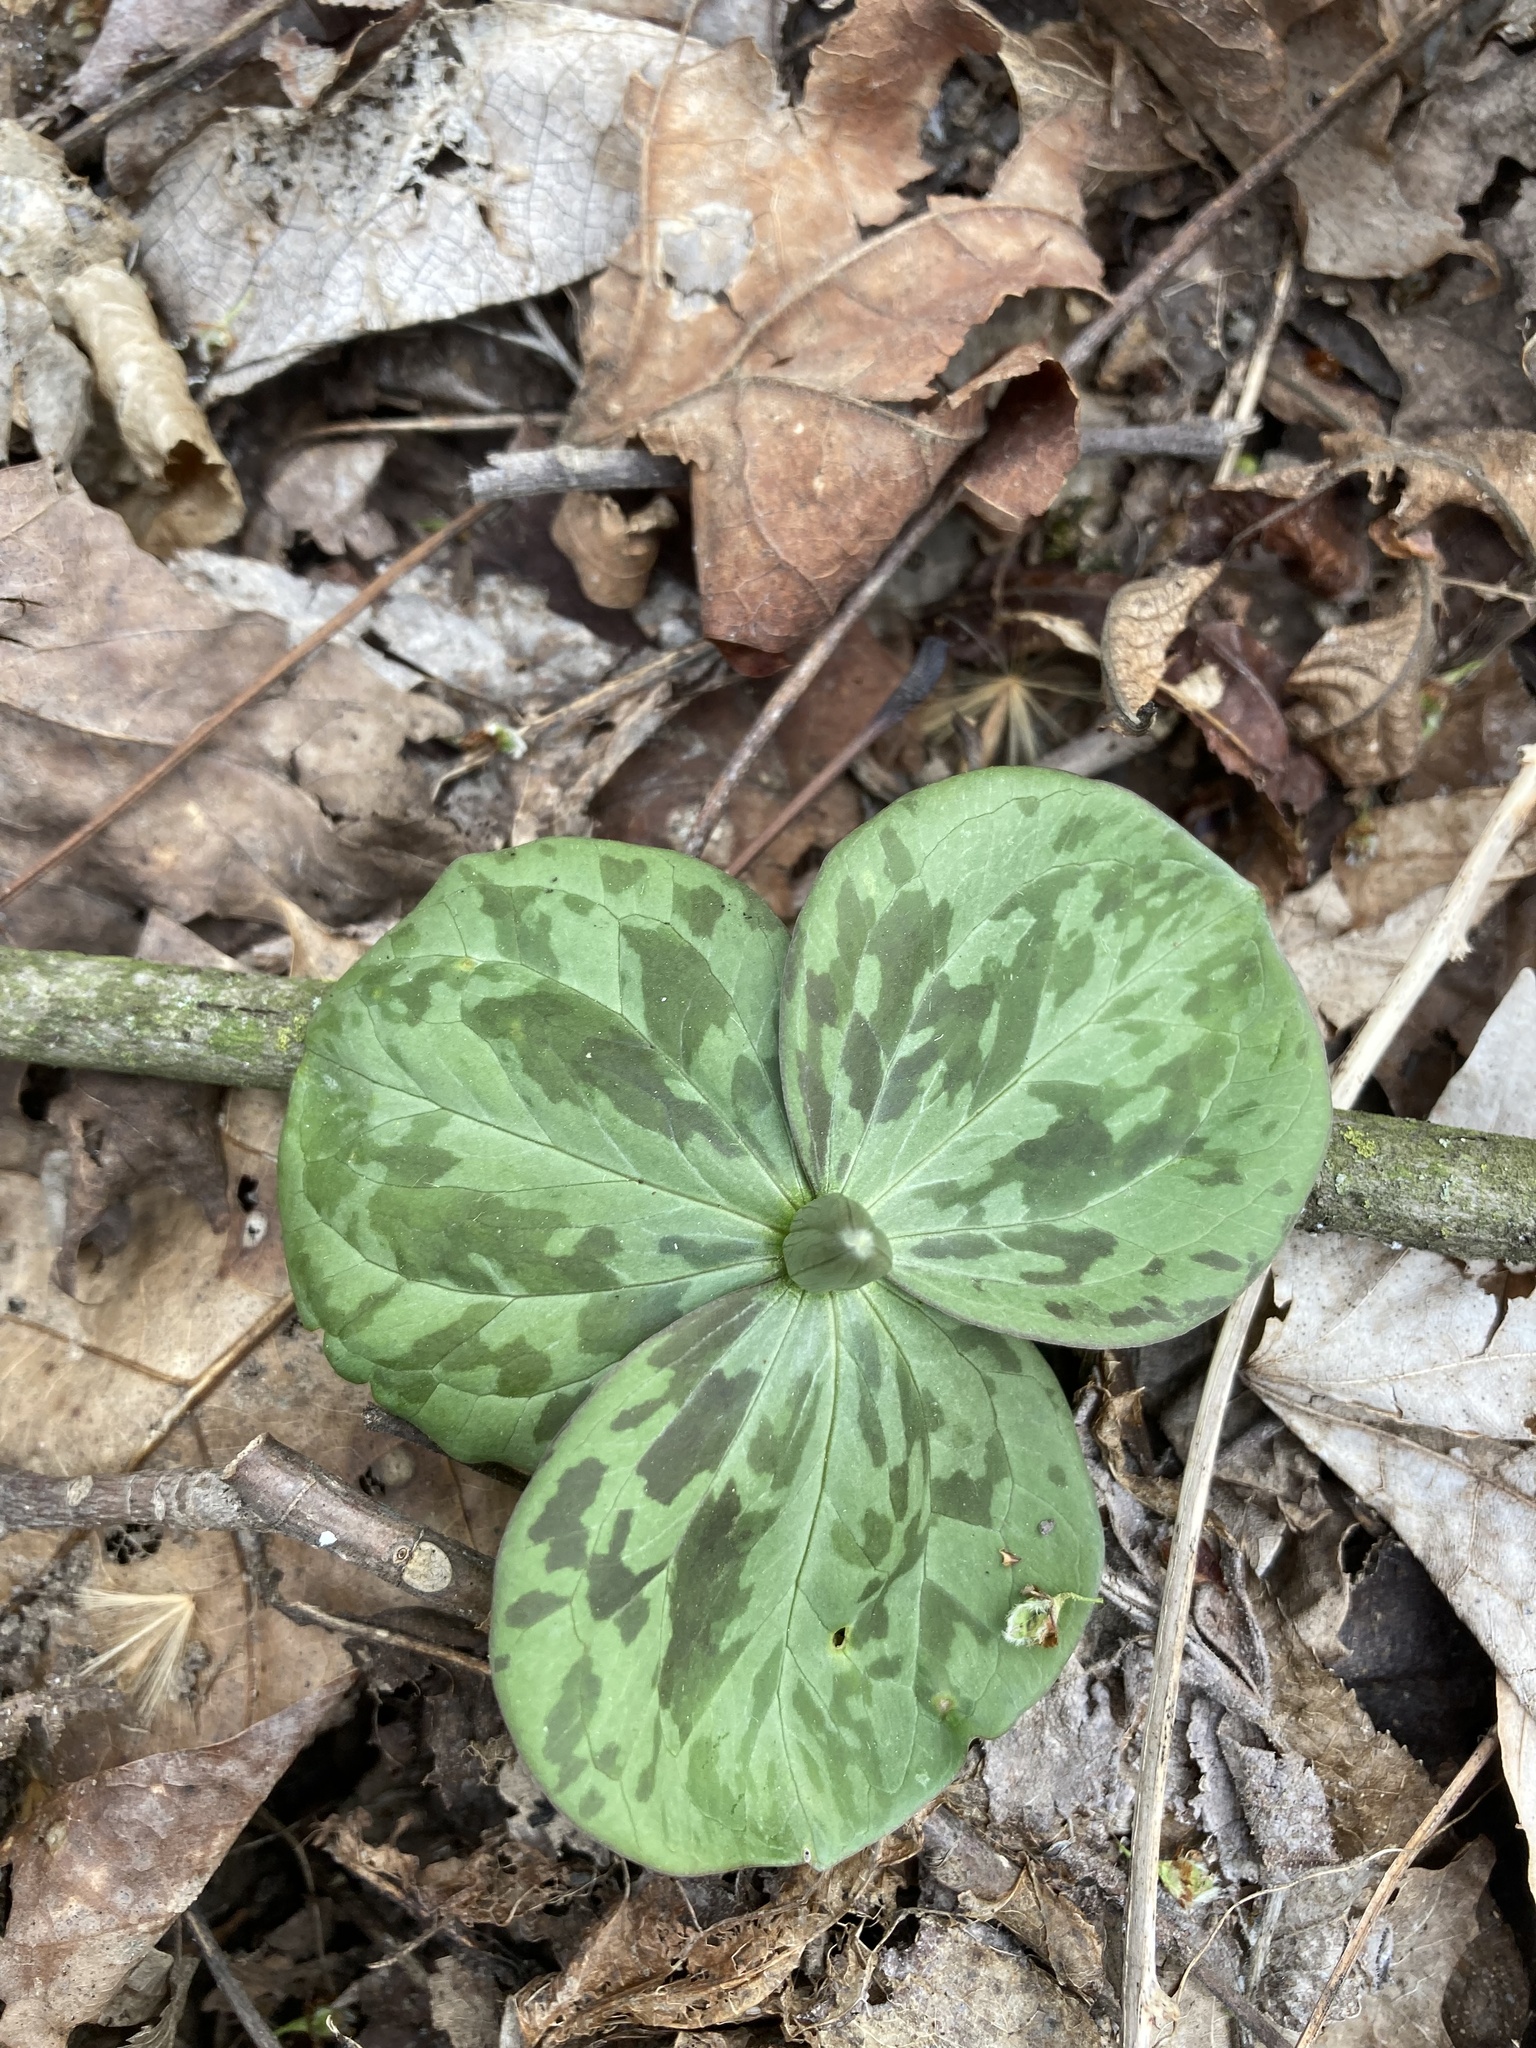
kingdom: Plantae
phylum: Tracheophyta
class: Liliopsida
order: Liliales
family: Melanthiaceae
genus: Trillium
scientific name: Trillium sessile
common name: Sessile trillium
